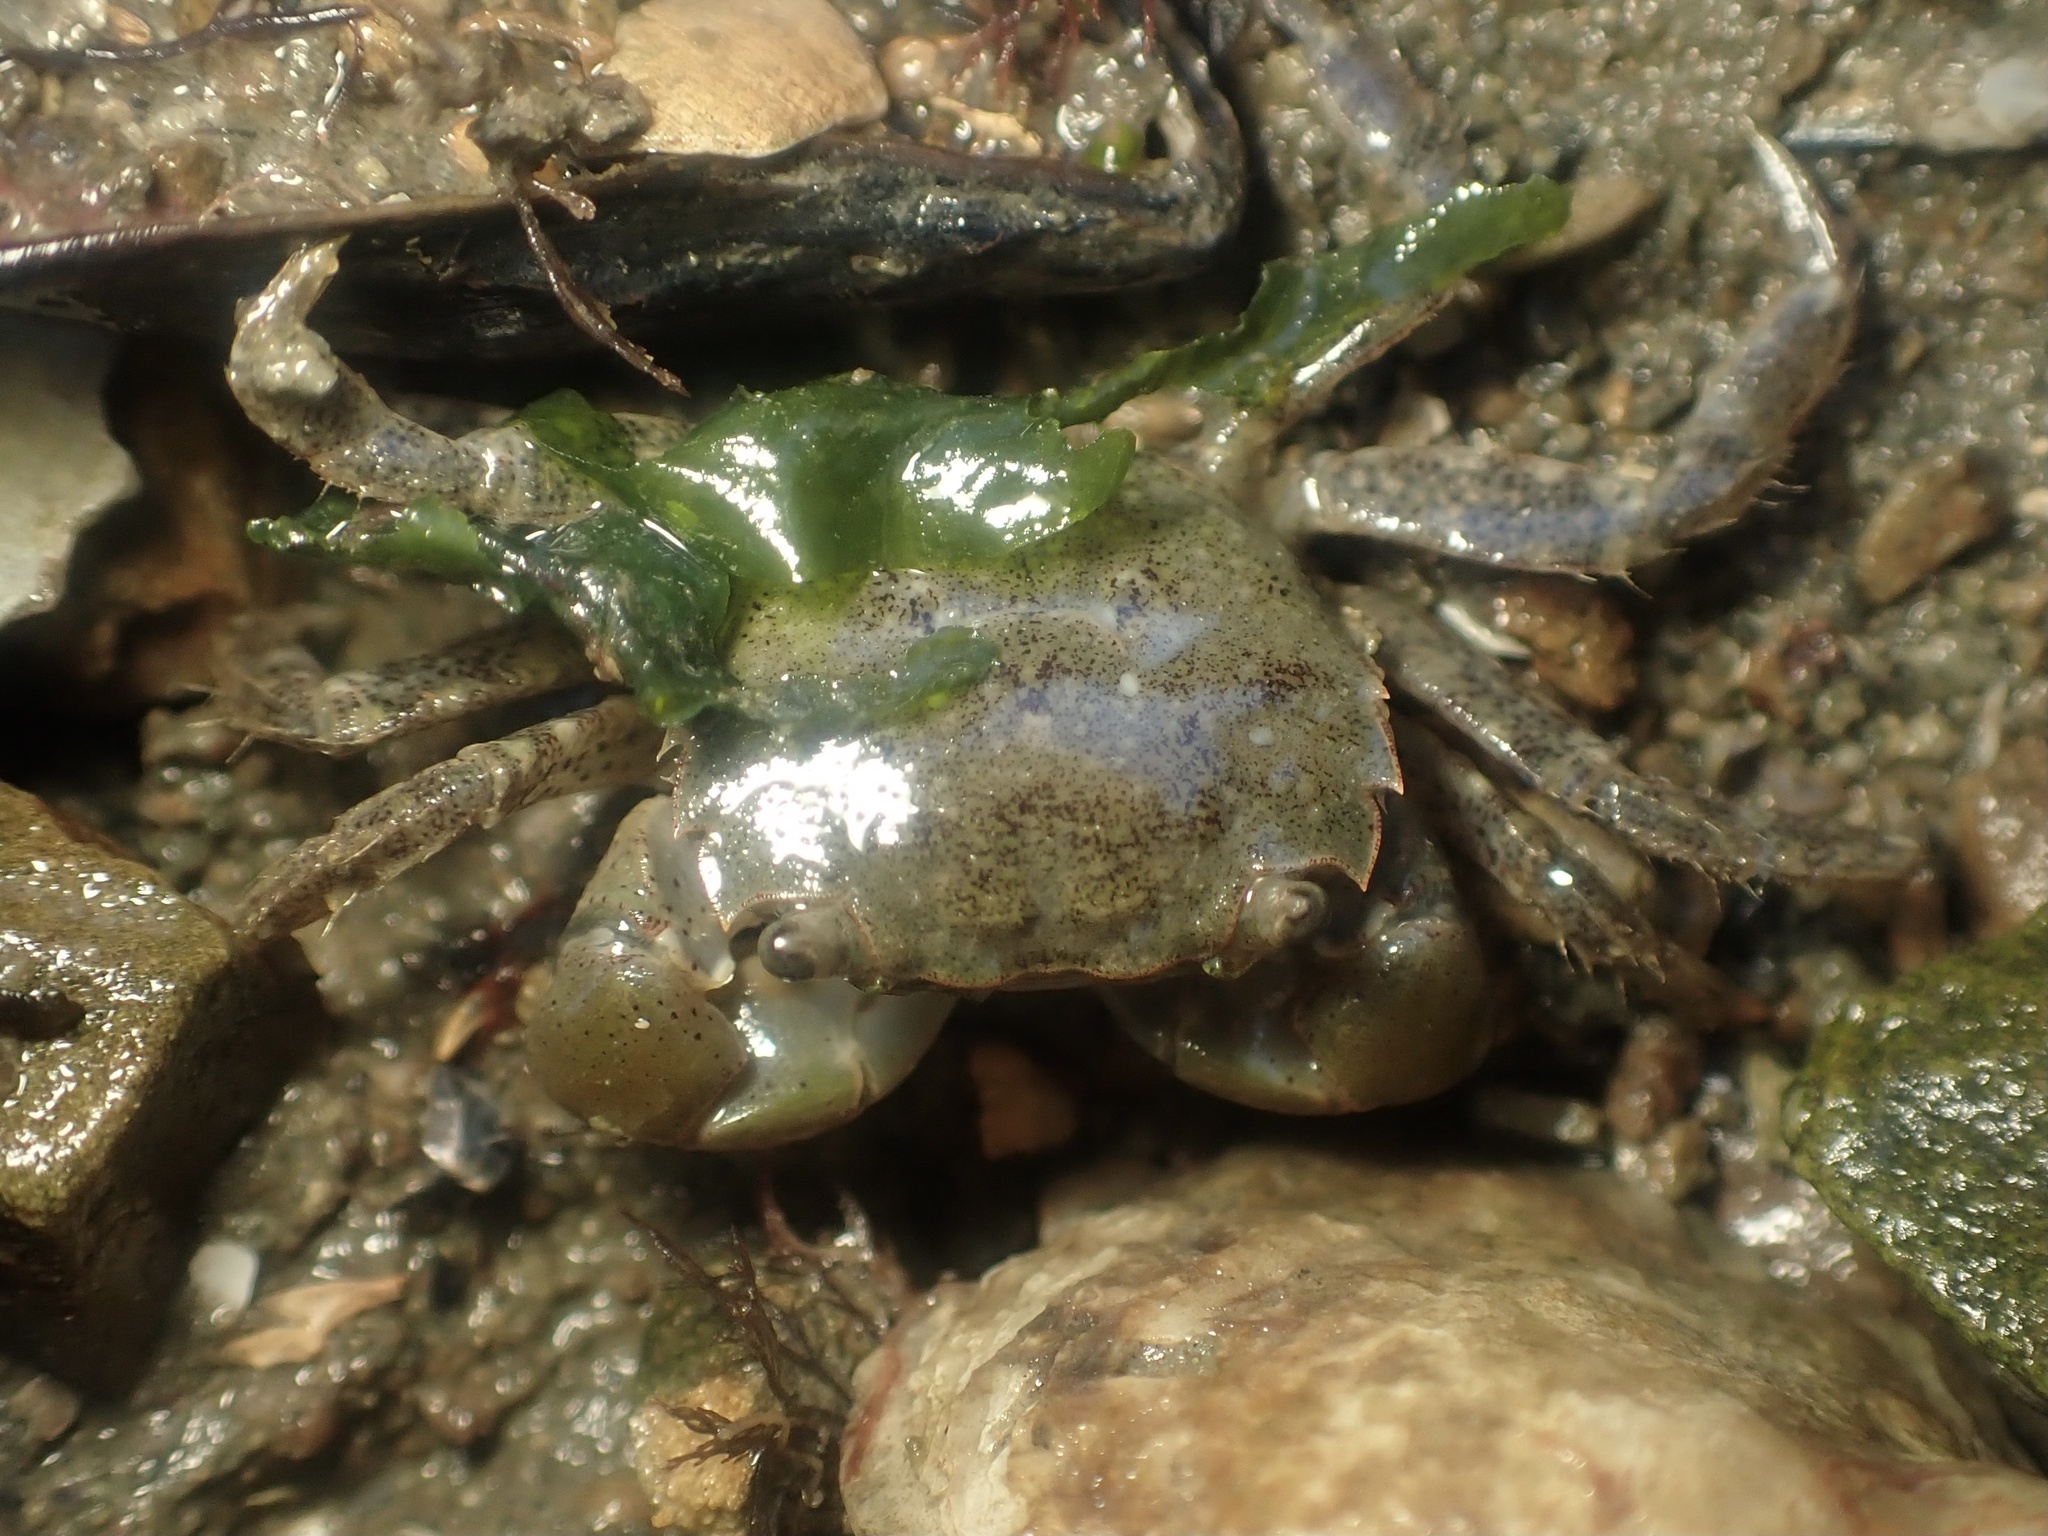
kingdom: Animalia
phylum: Arthropoda
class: Malacostraca
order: Decapoda
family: Varunidae
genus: Hemigrapsus
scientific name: Hemigrapsus oregonensis
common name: Yellow shore crab
